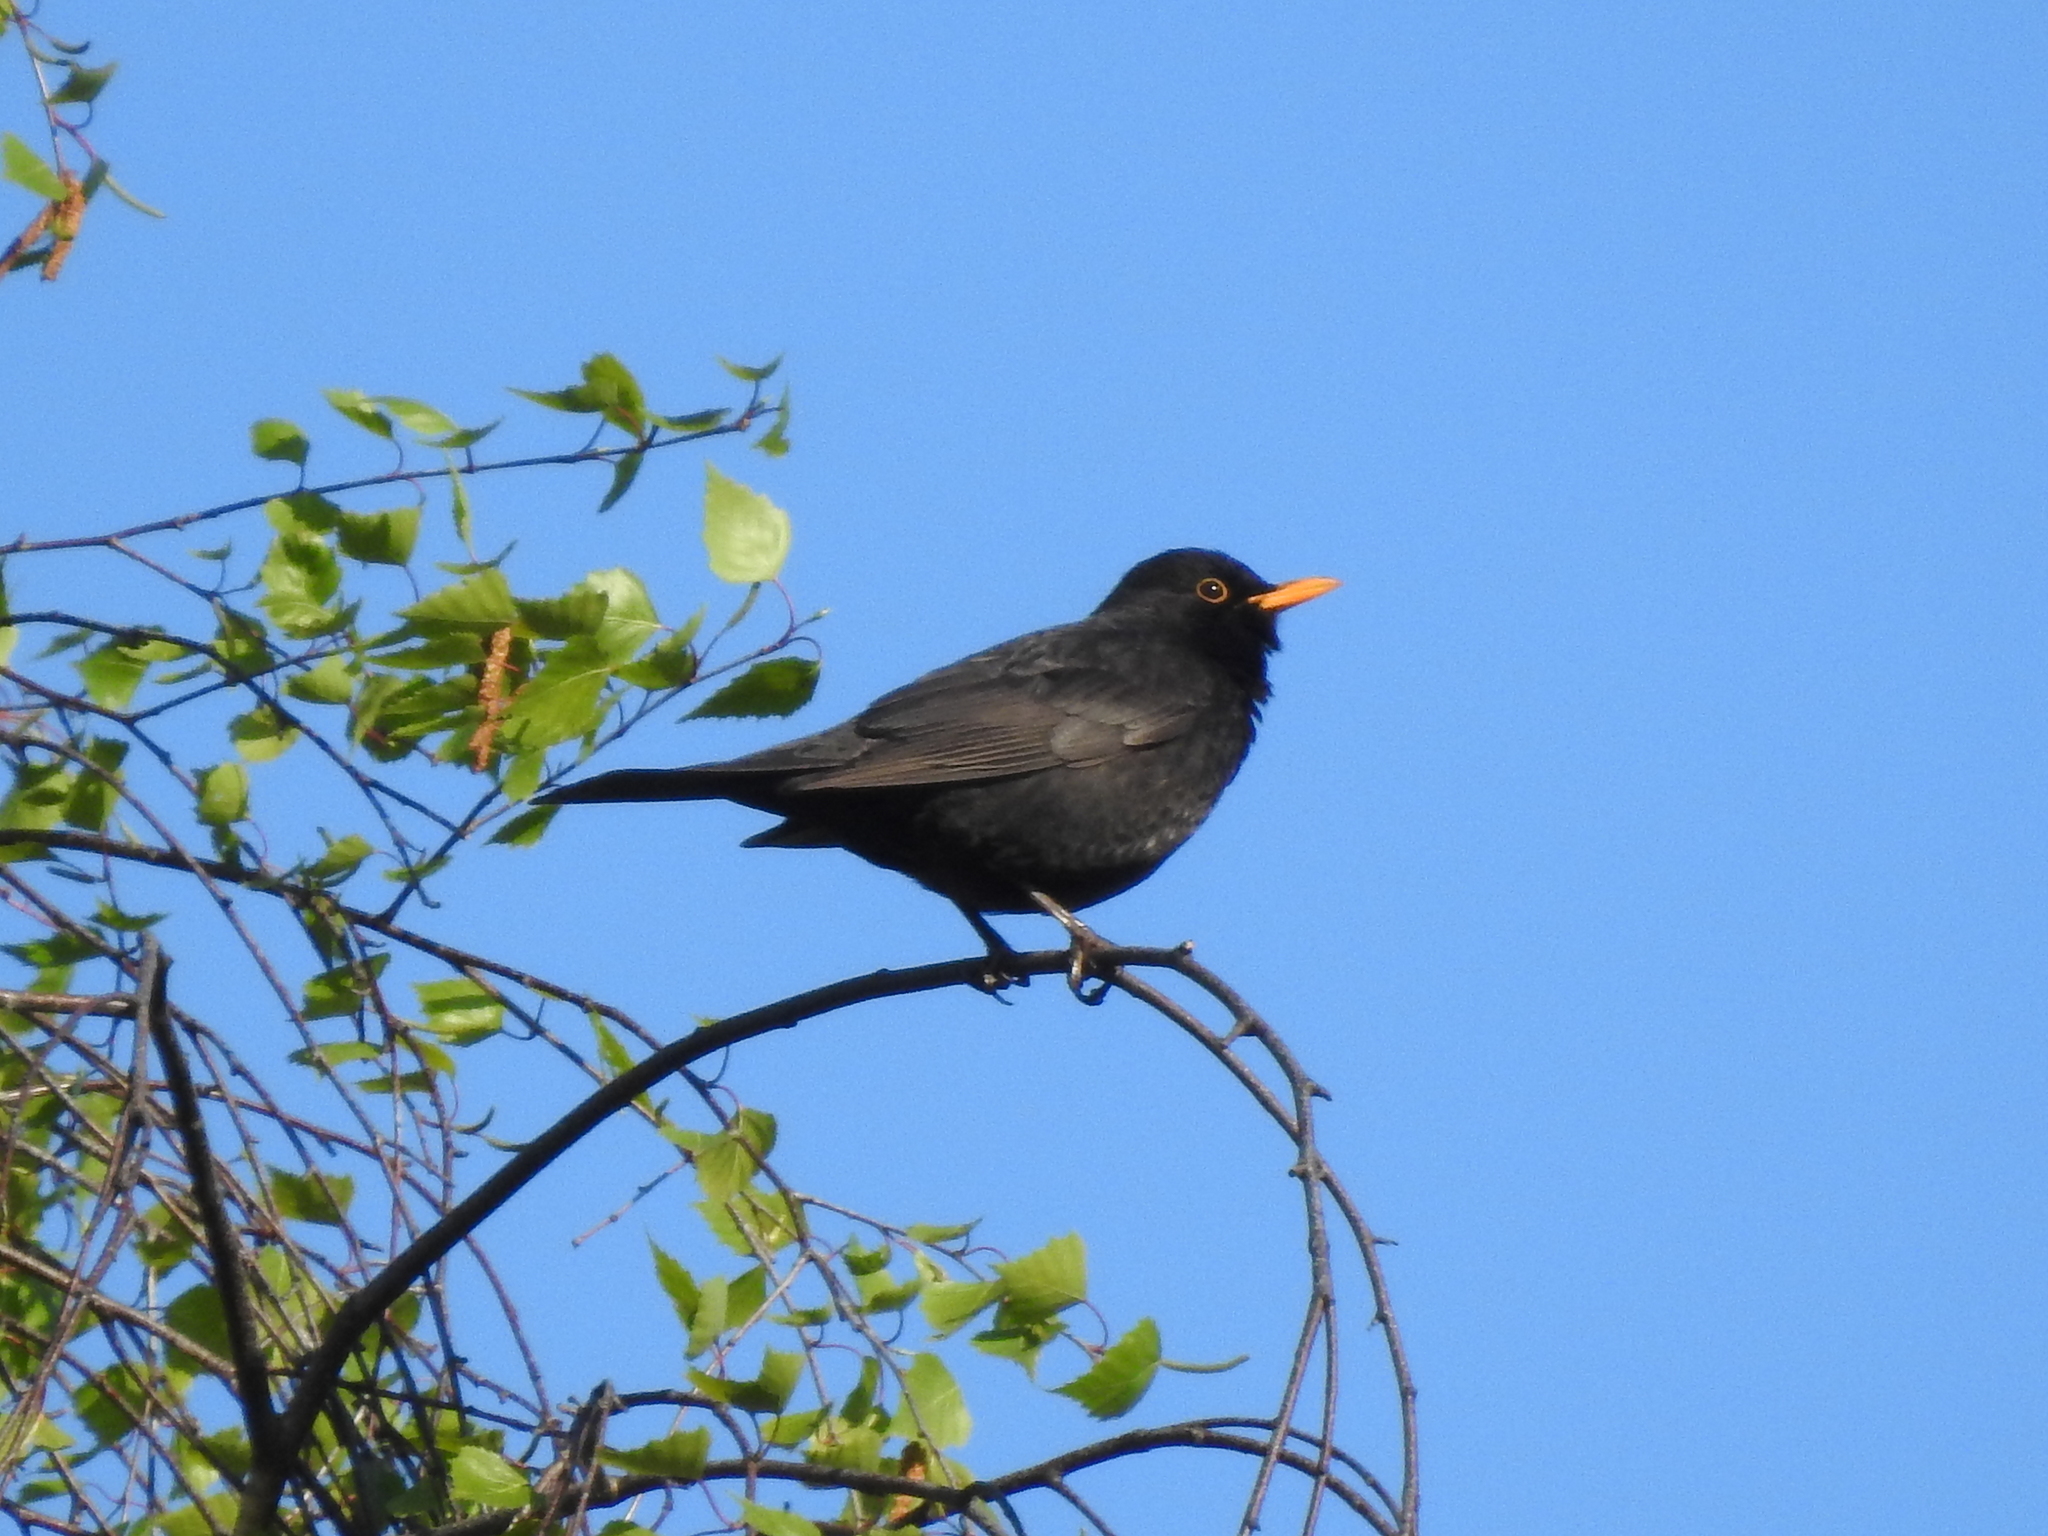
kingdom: Animalia
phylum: Chordata
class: Aves
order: Passeriformes
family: Turdidae
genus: Turdus
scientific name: Turdus merula
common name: Common blackbird
